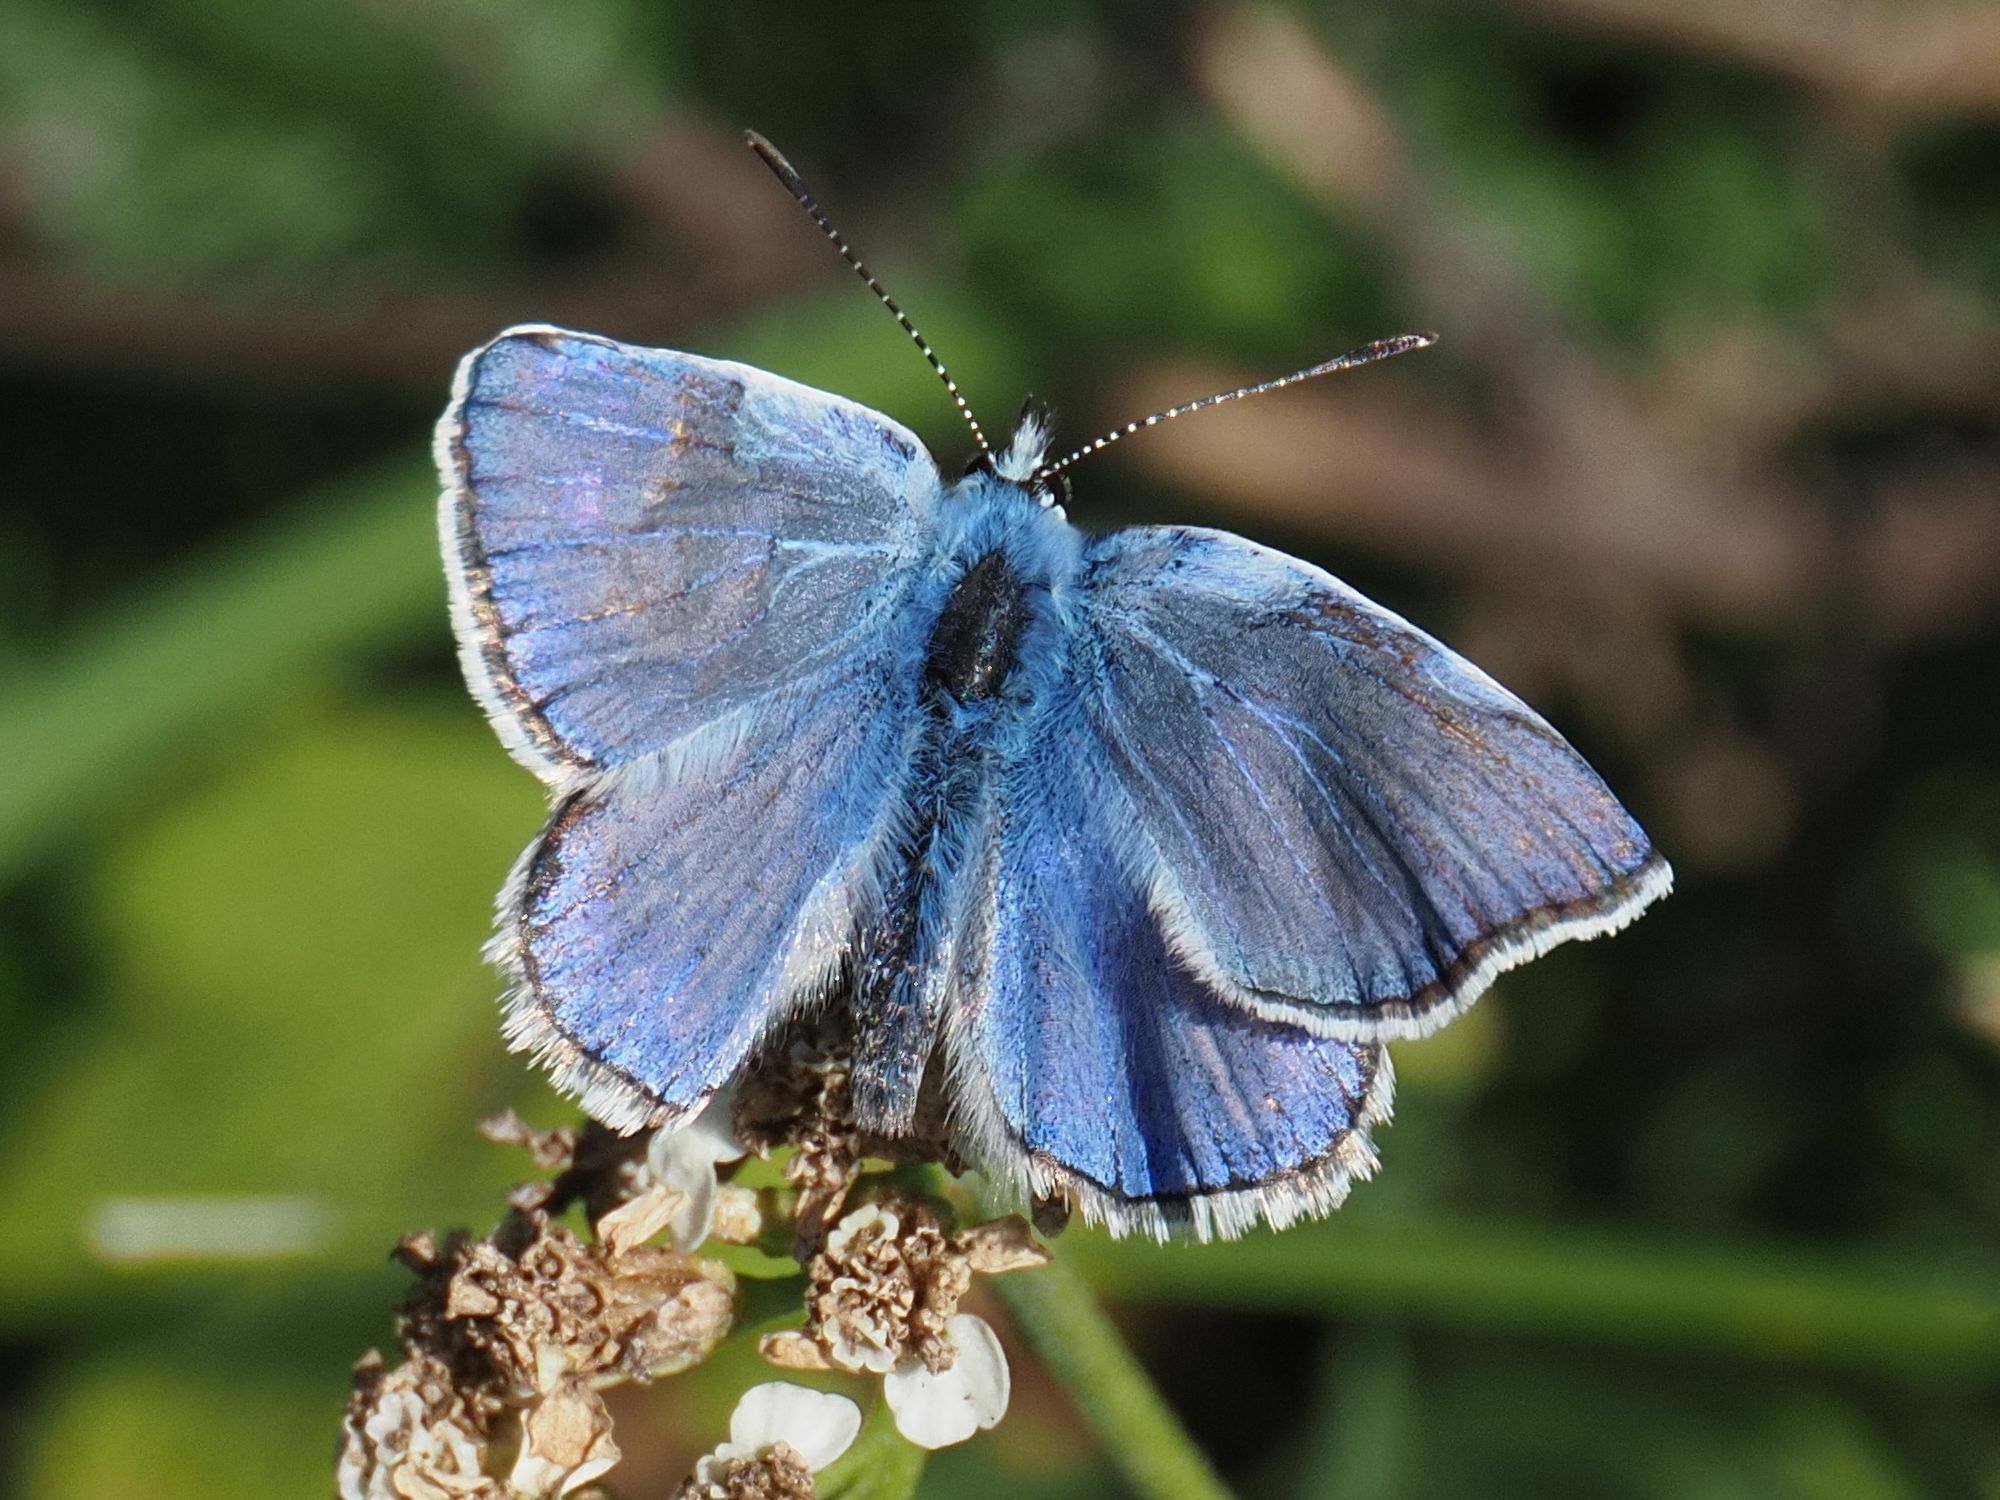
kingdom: Animalia
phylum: Arthropoda
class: Insecta
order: Lepidoptera
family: Lycaenidae
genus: Polyommatus
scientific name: Polyommatus icarus
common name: Common blue
